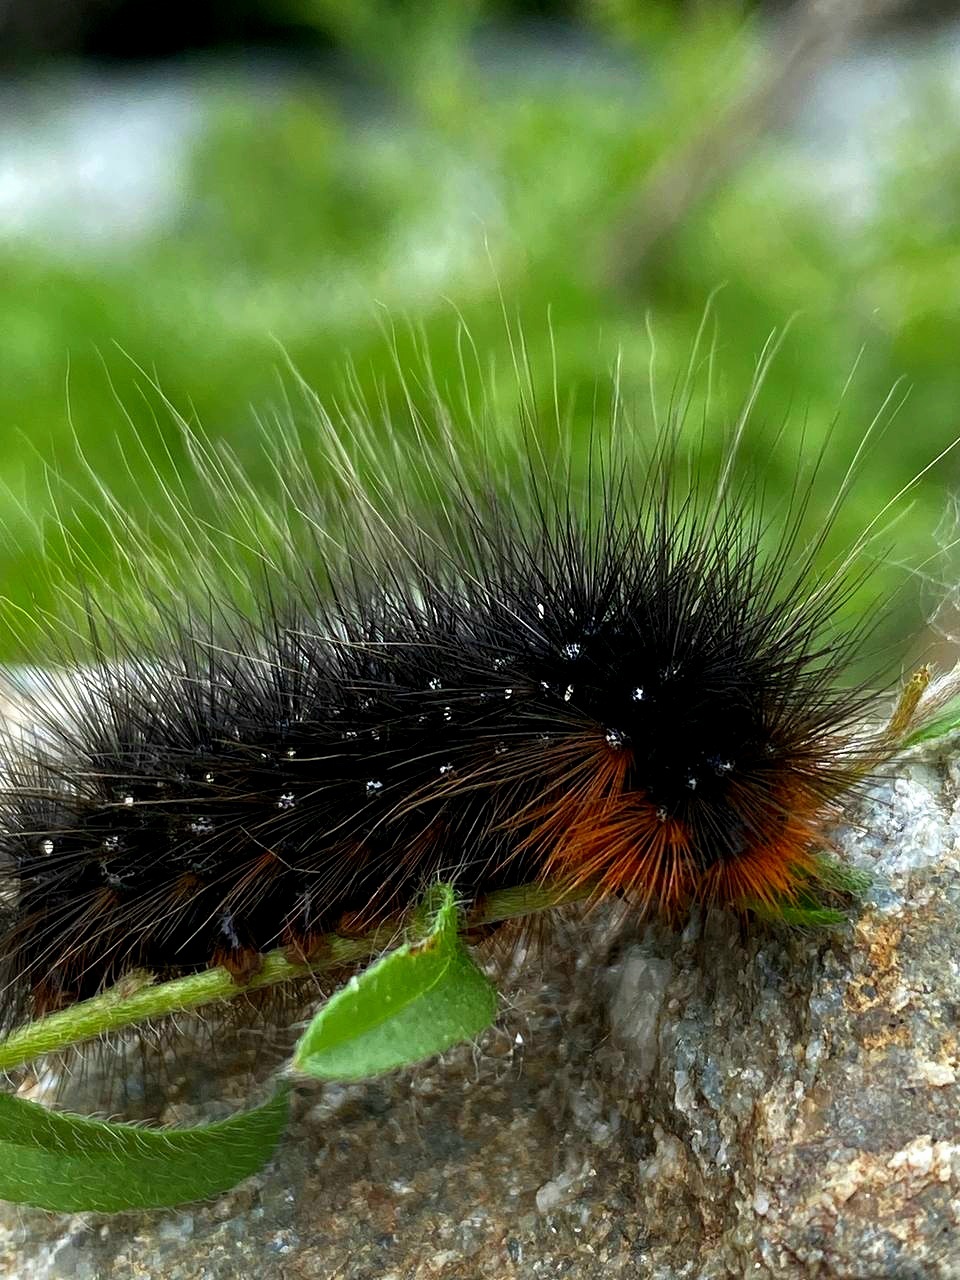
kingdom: Animalia
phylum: Arthropoda
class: Insecta
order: Lepidoptera
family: Erebidae
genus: Arctia
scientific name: Arctia caja
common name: Garden tiger
